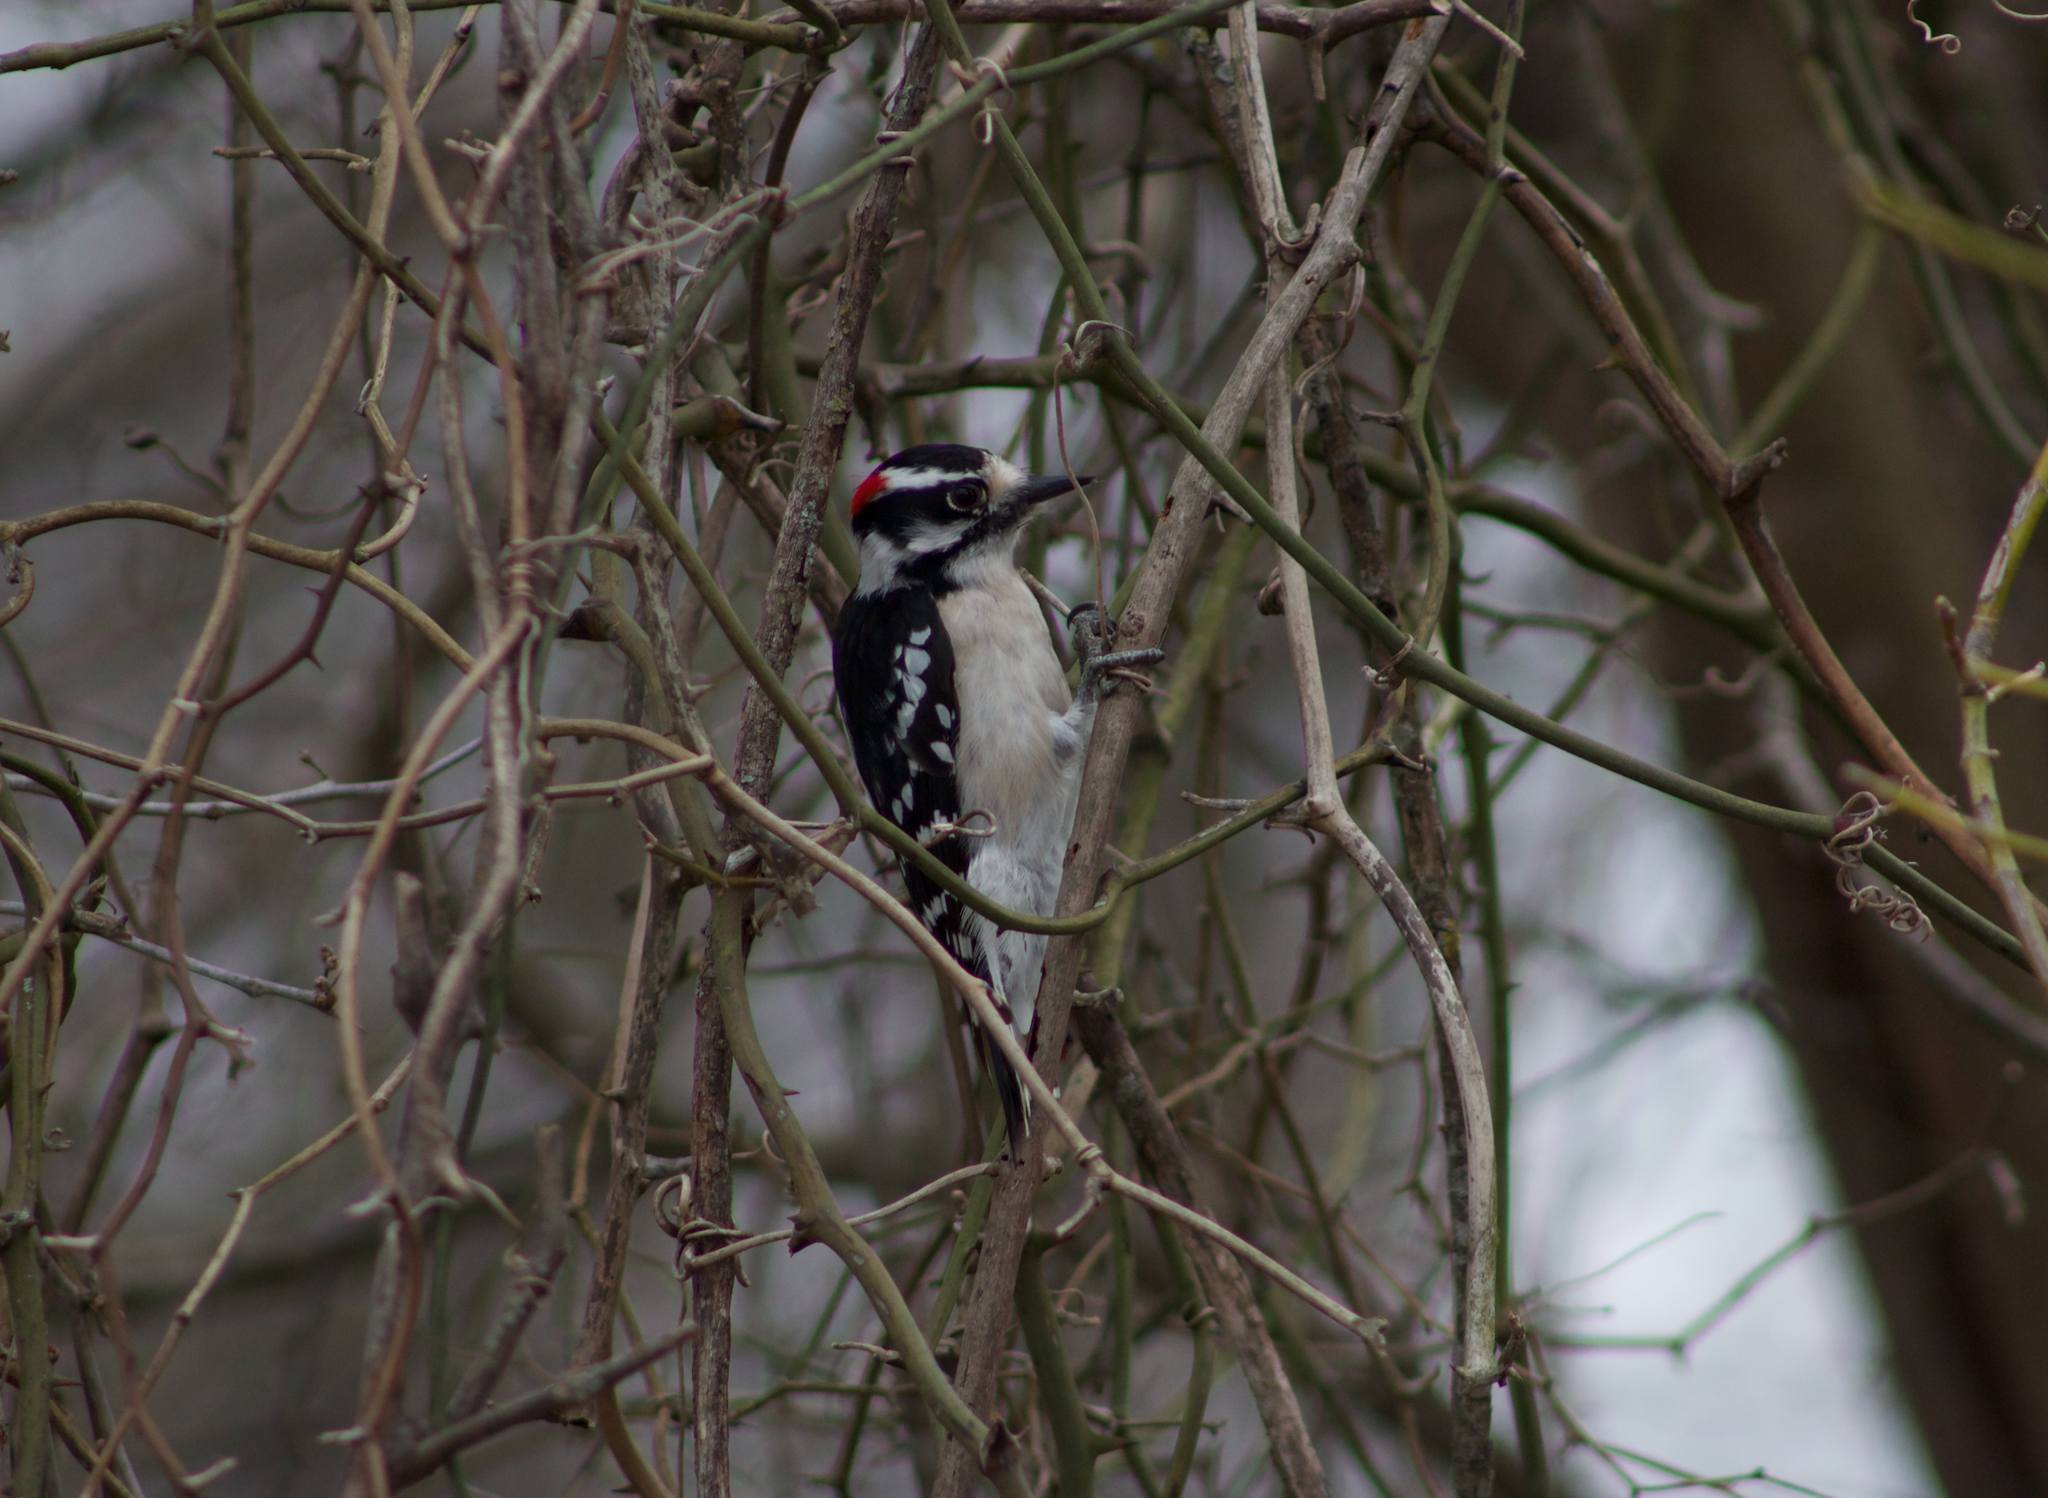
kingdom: Animalia
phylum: Chordata
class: Aves
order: Piciformes
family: Picidae
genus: Dryobates
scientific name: Dryobates pubescens
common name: Downy woodpecker
